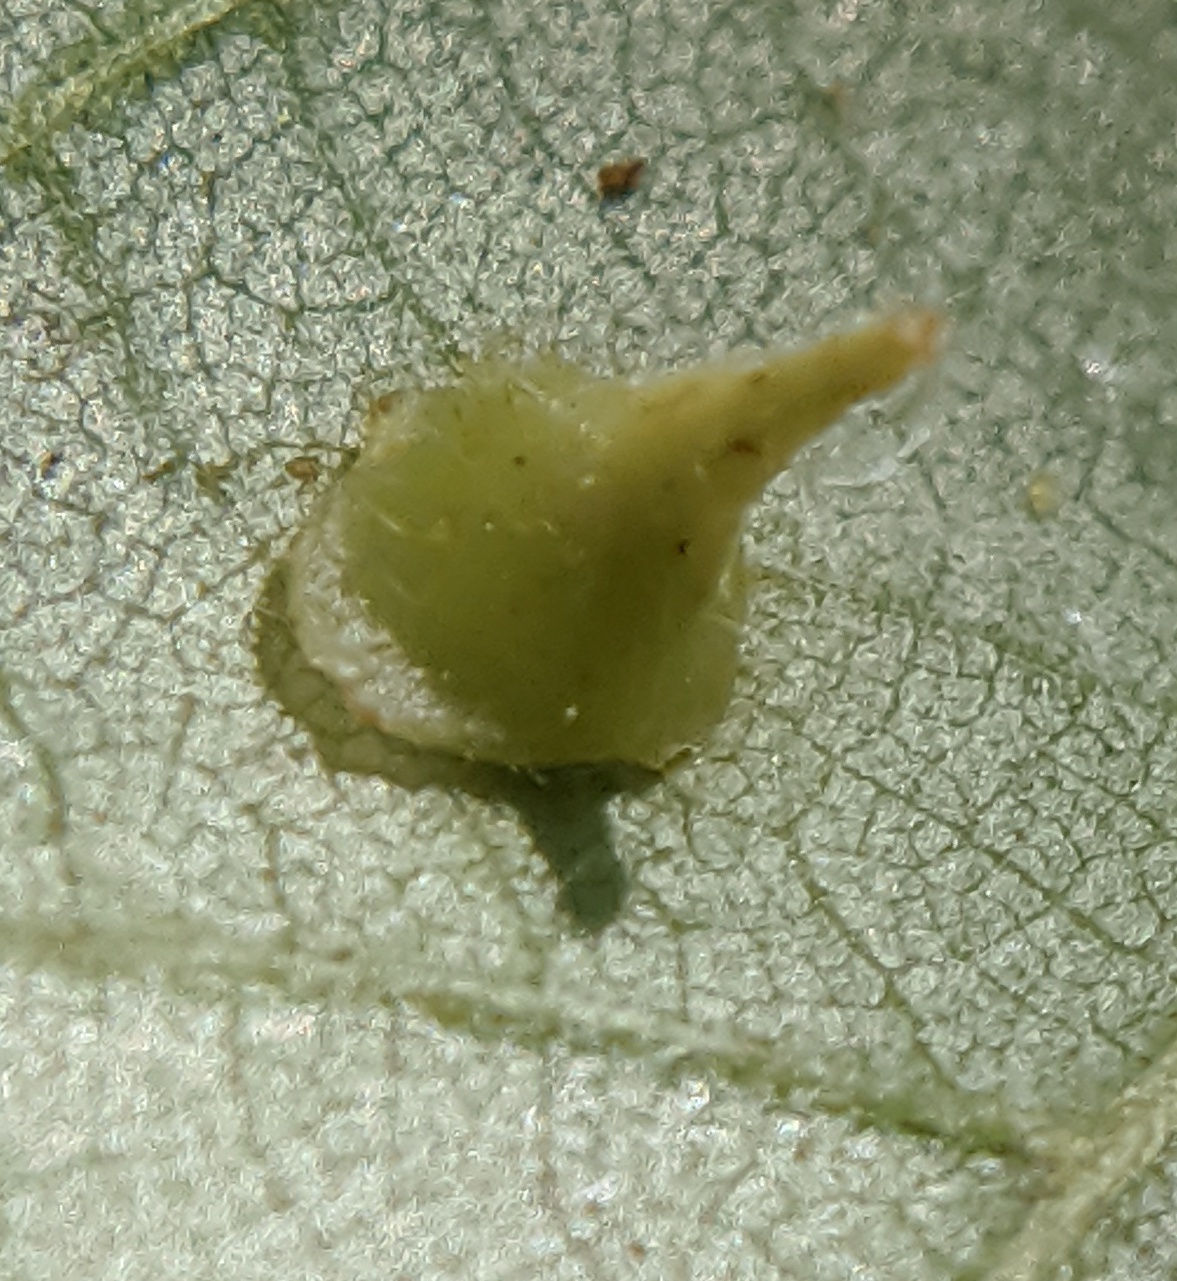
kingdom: Animalia
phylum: Arthropoda
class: Insecta
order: Diptera
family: Cecidomyiidae
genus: Caryomyia
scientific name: Caryomyia marginata
